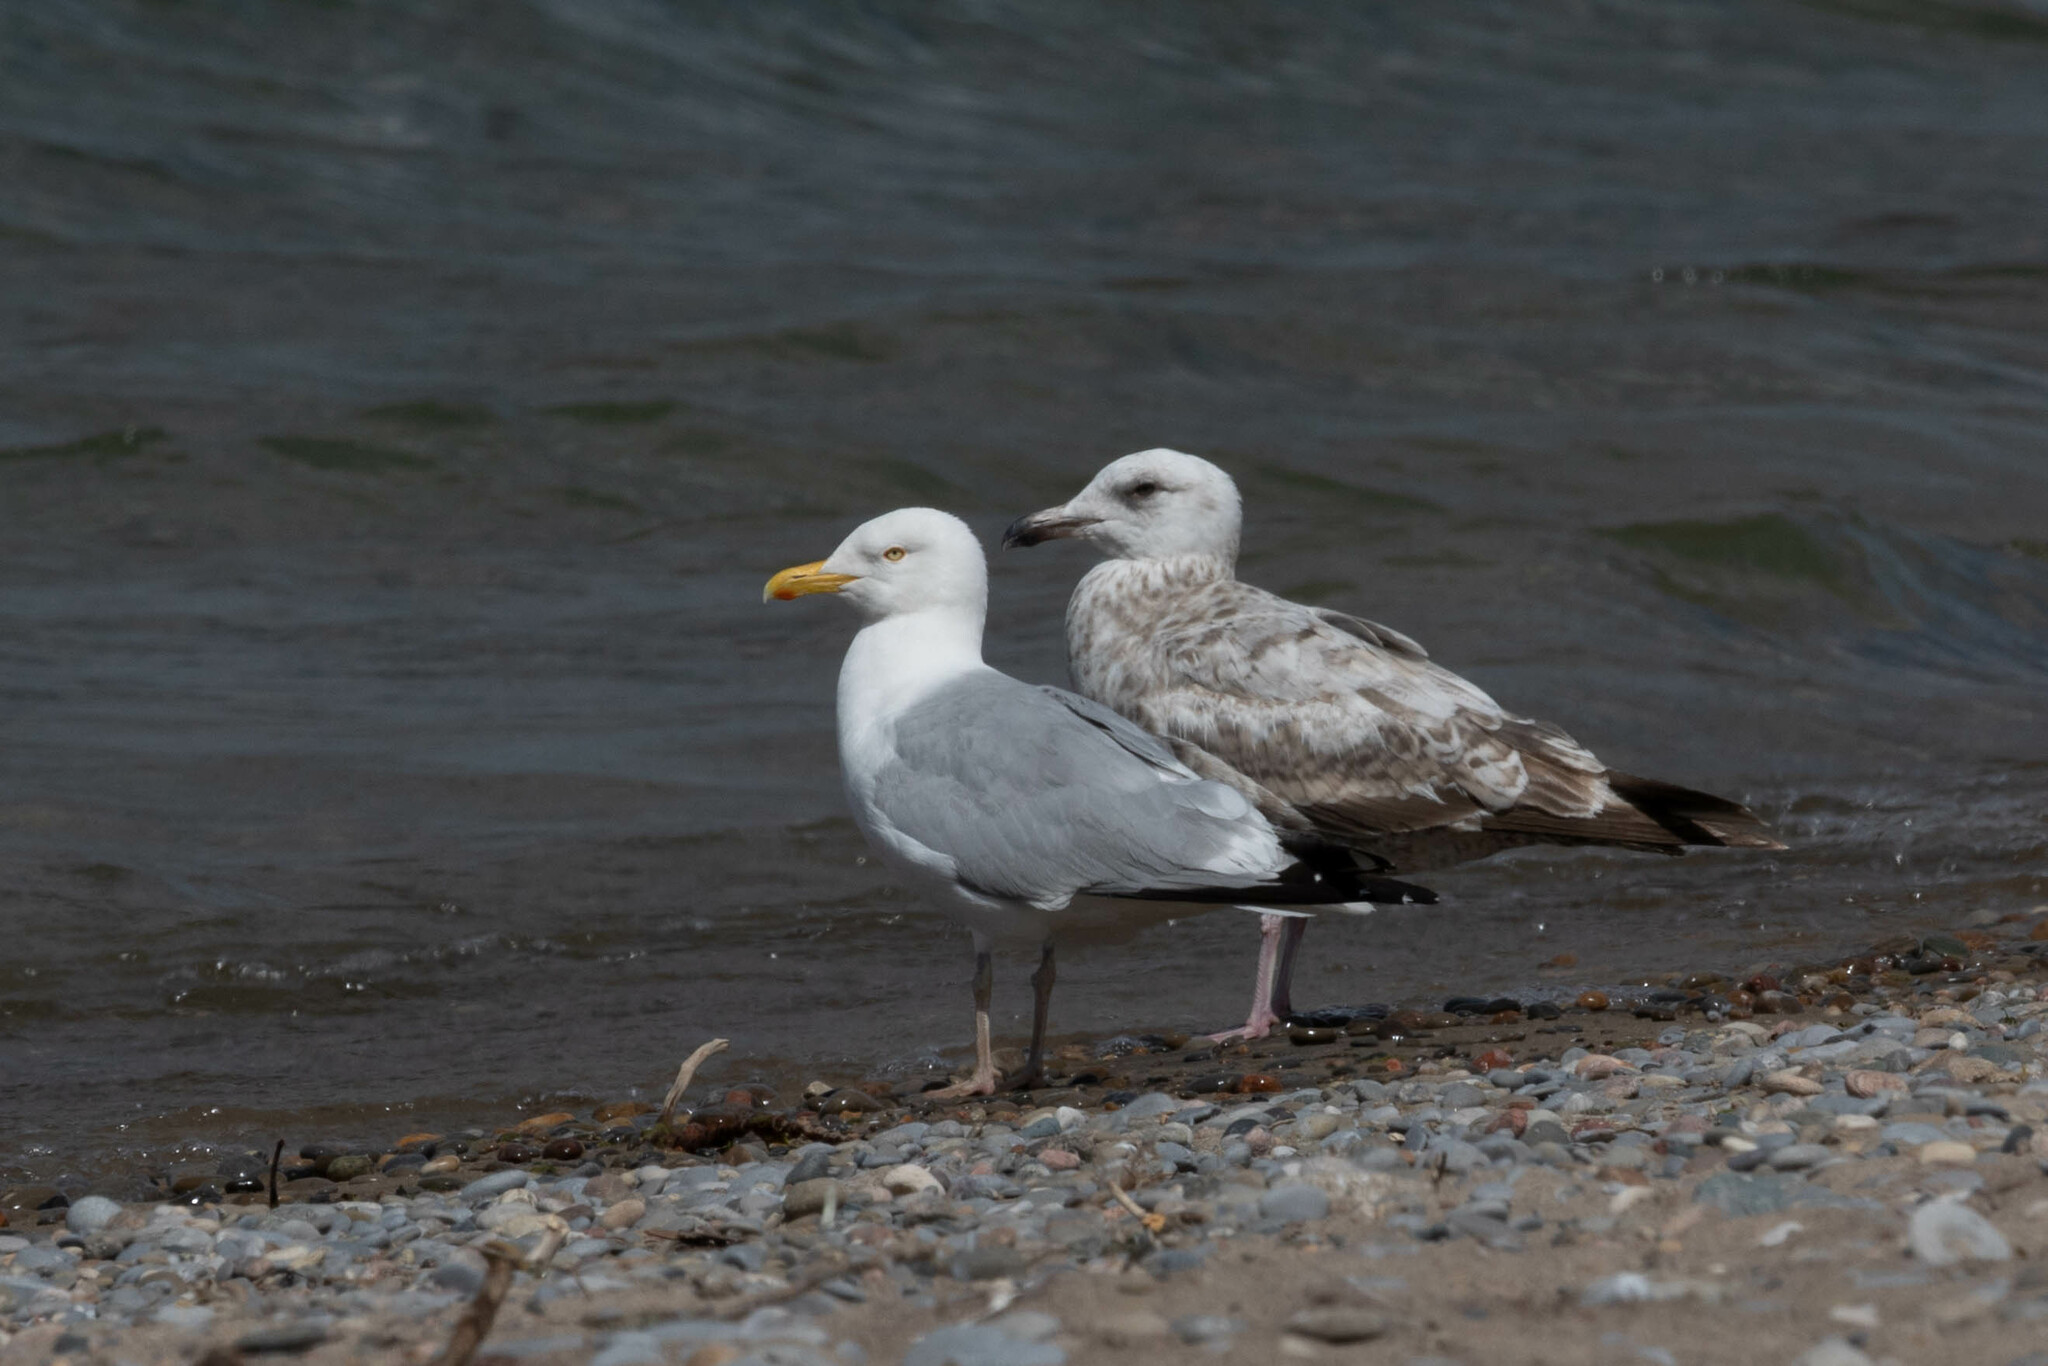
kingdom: Animalia
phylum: Chordata
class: Aves
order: Charadriiformes
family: Laridae
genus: Larus
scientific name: Larus argentatus
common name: Herring gull
